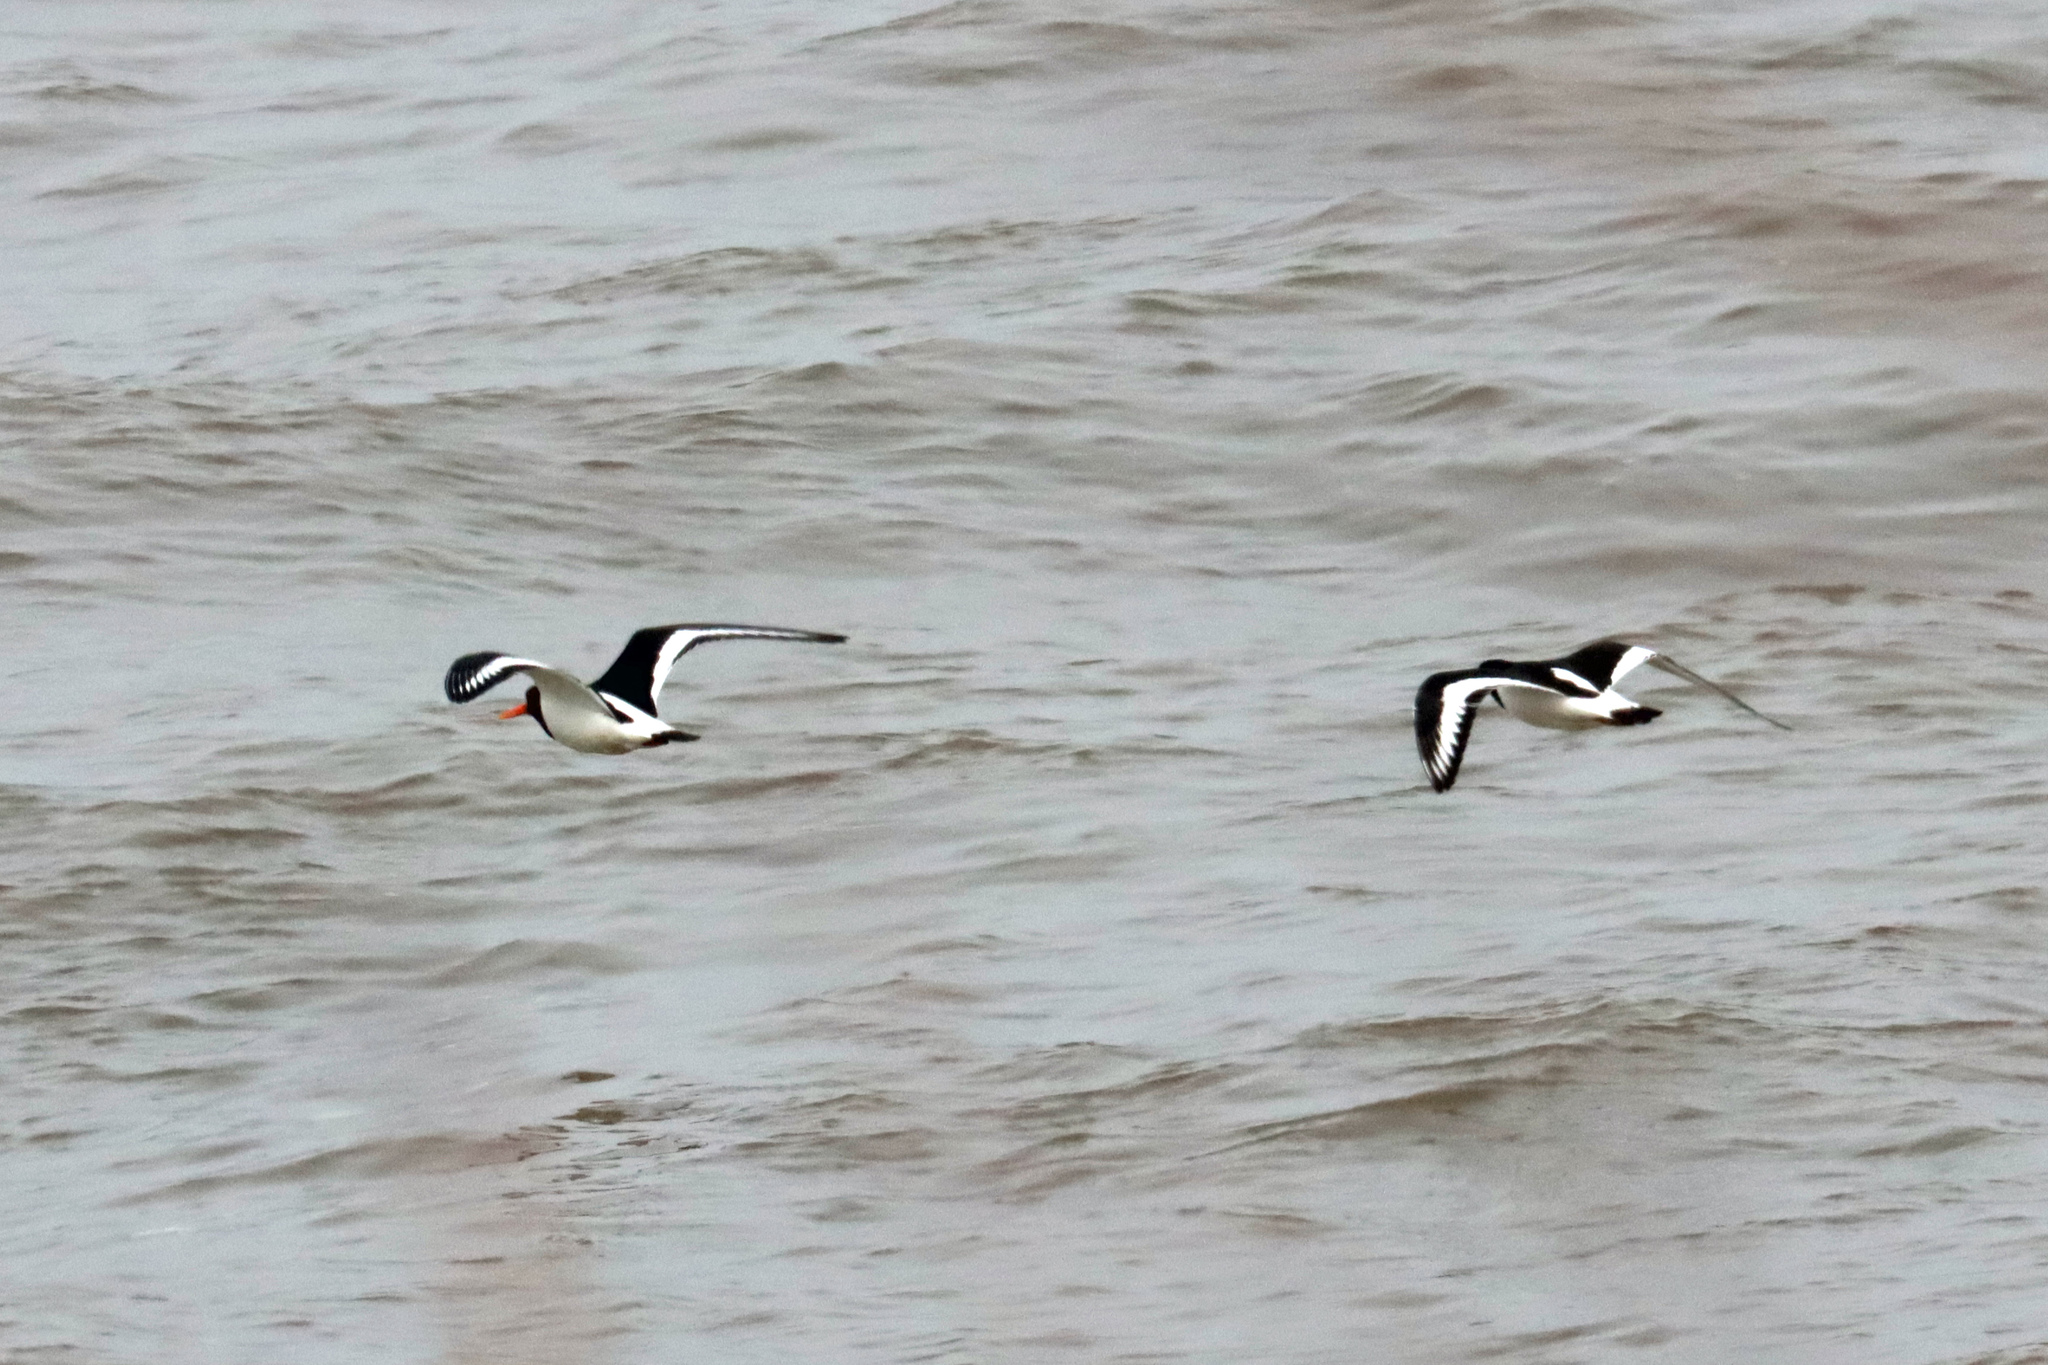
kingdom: Animalia
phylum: Chordata
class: Aves
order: Charadriiformes
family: Haematopodidae
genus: Haematopus
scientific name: Haematopus ostralegus
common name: Eurasian oystercatcher
